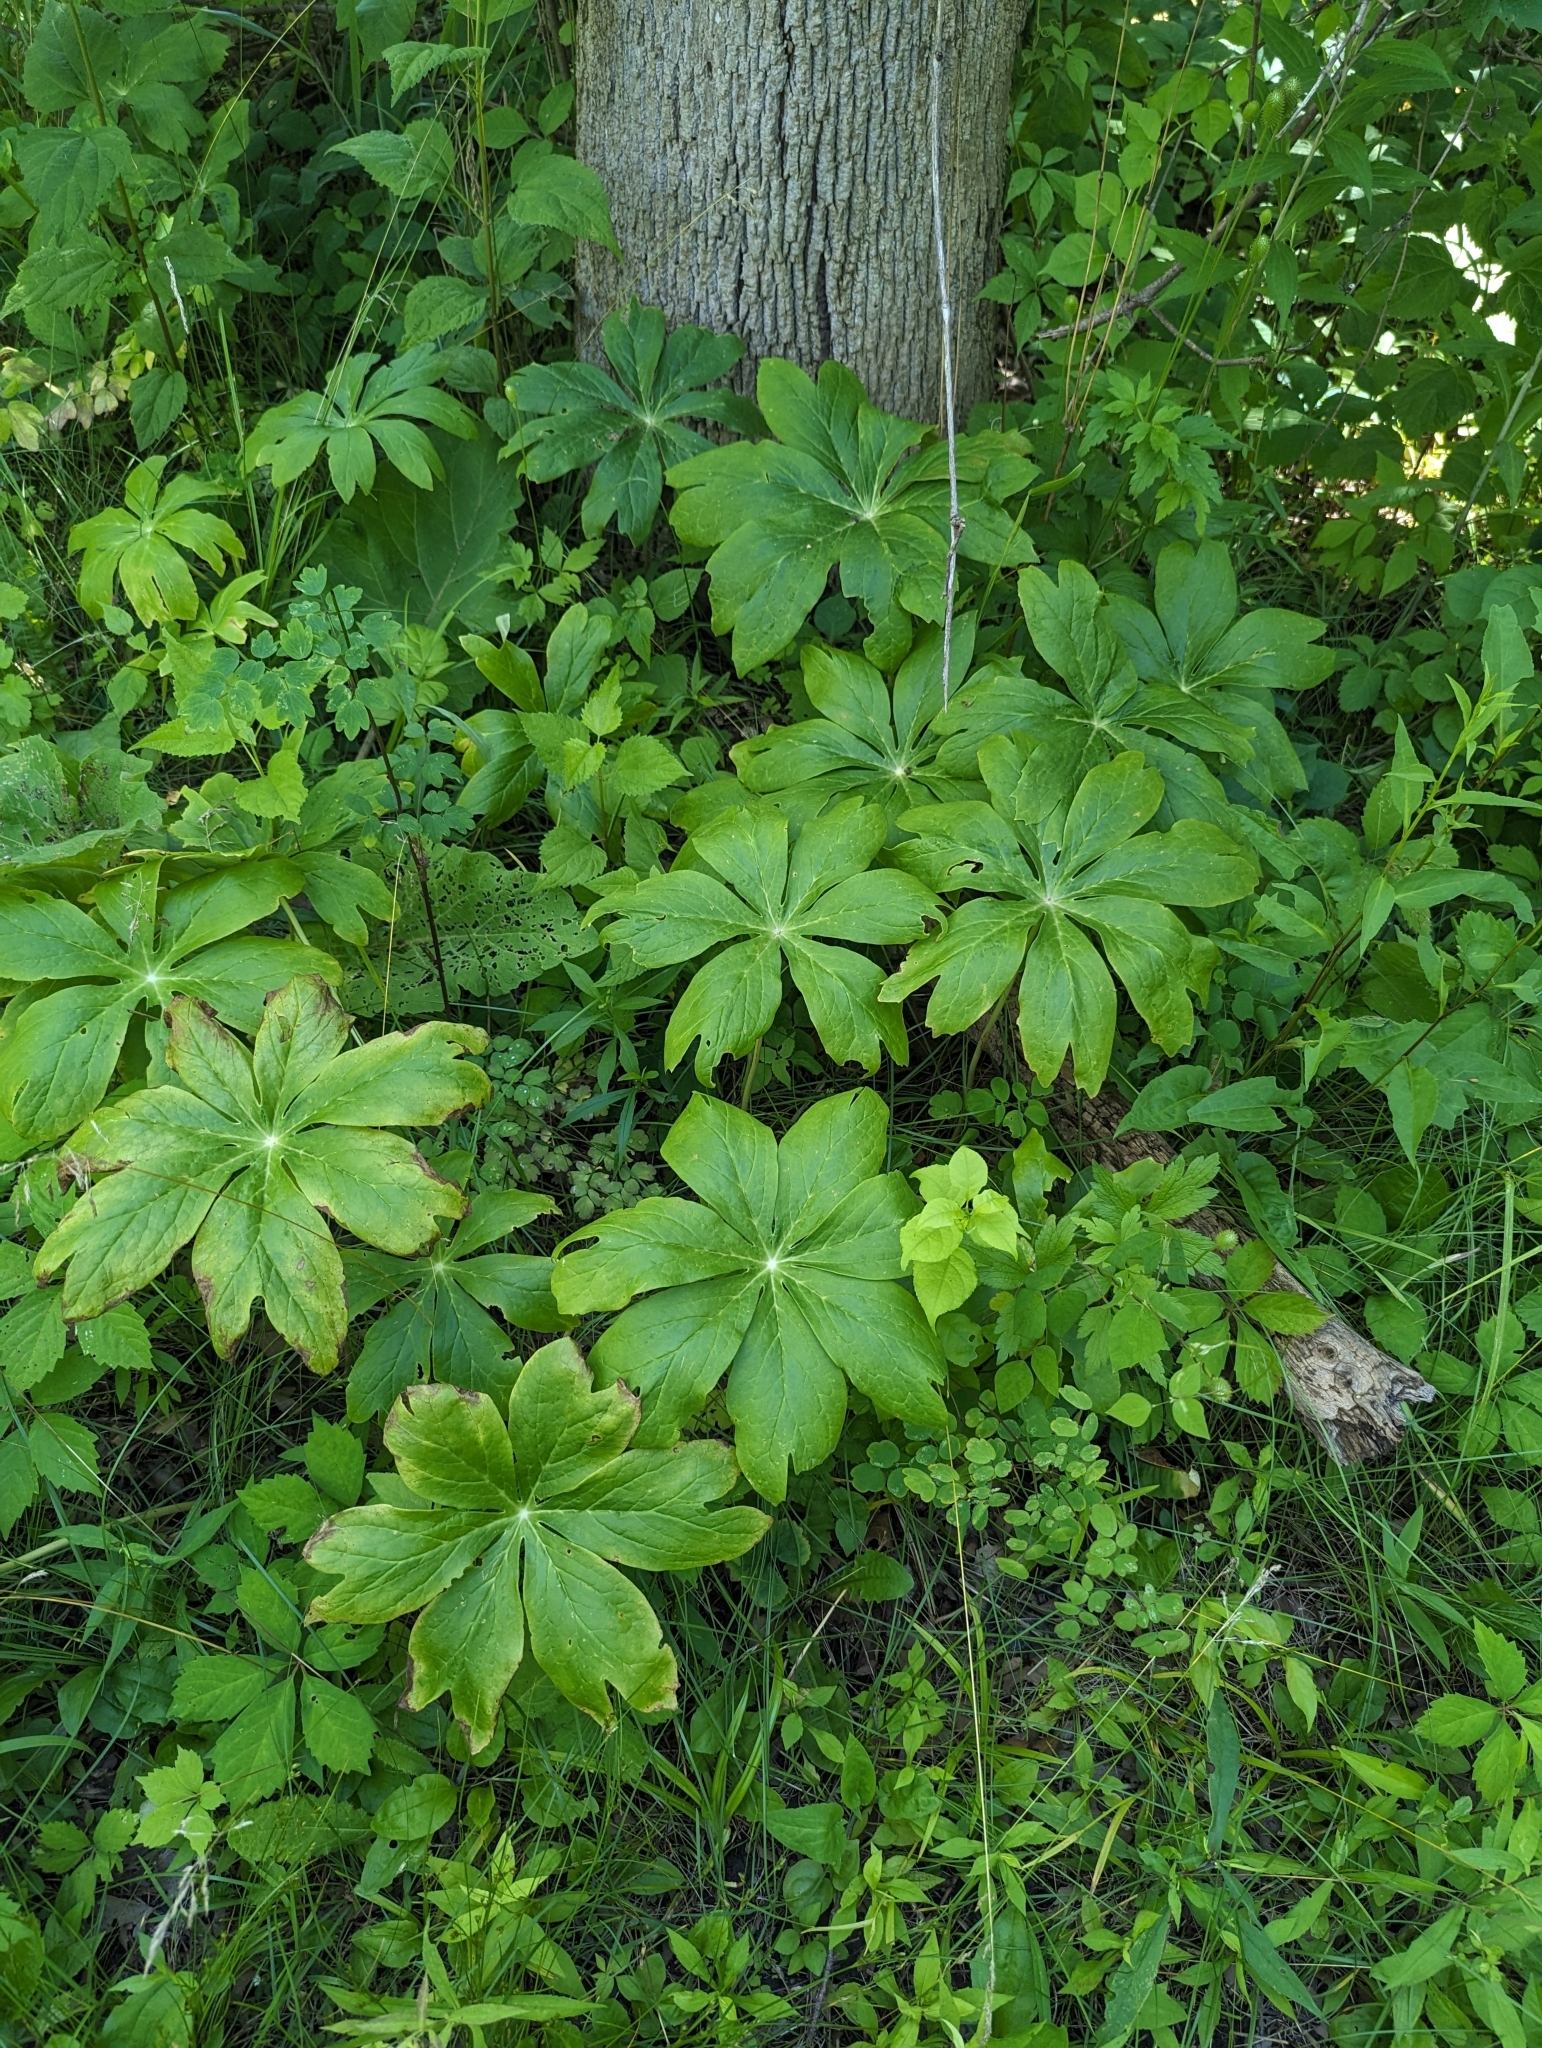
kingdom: Plantae
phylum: Tracheophyta
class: Magnoliopsida
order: Ranunculales
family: Berberidaceae
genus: Podophyllum
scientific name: Podophyllum peltatum
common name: Wild mandrake
